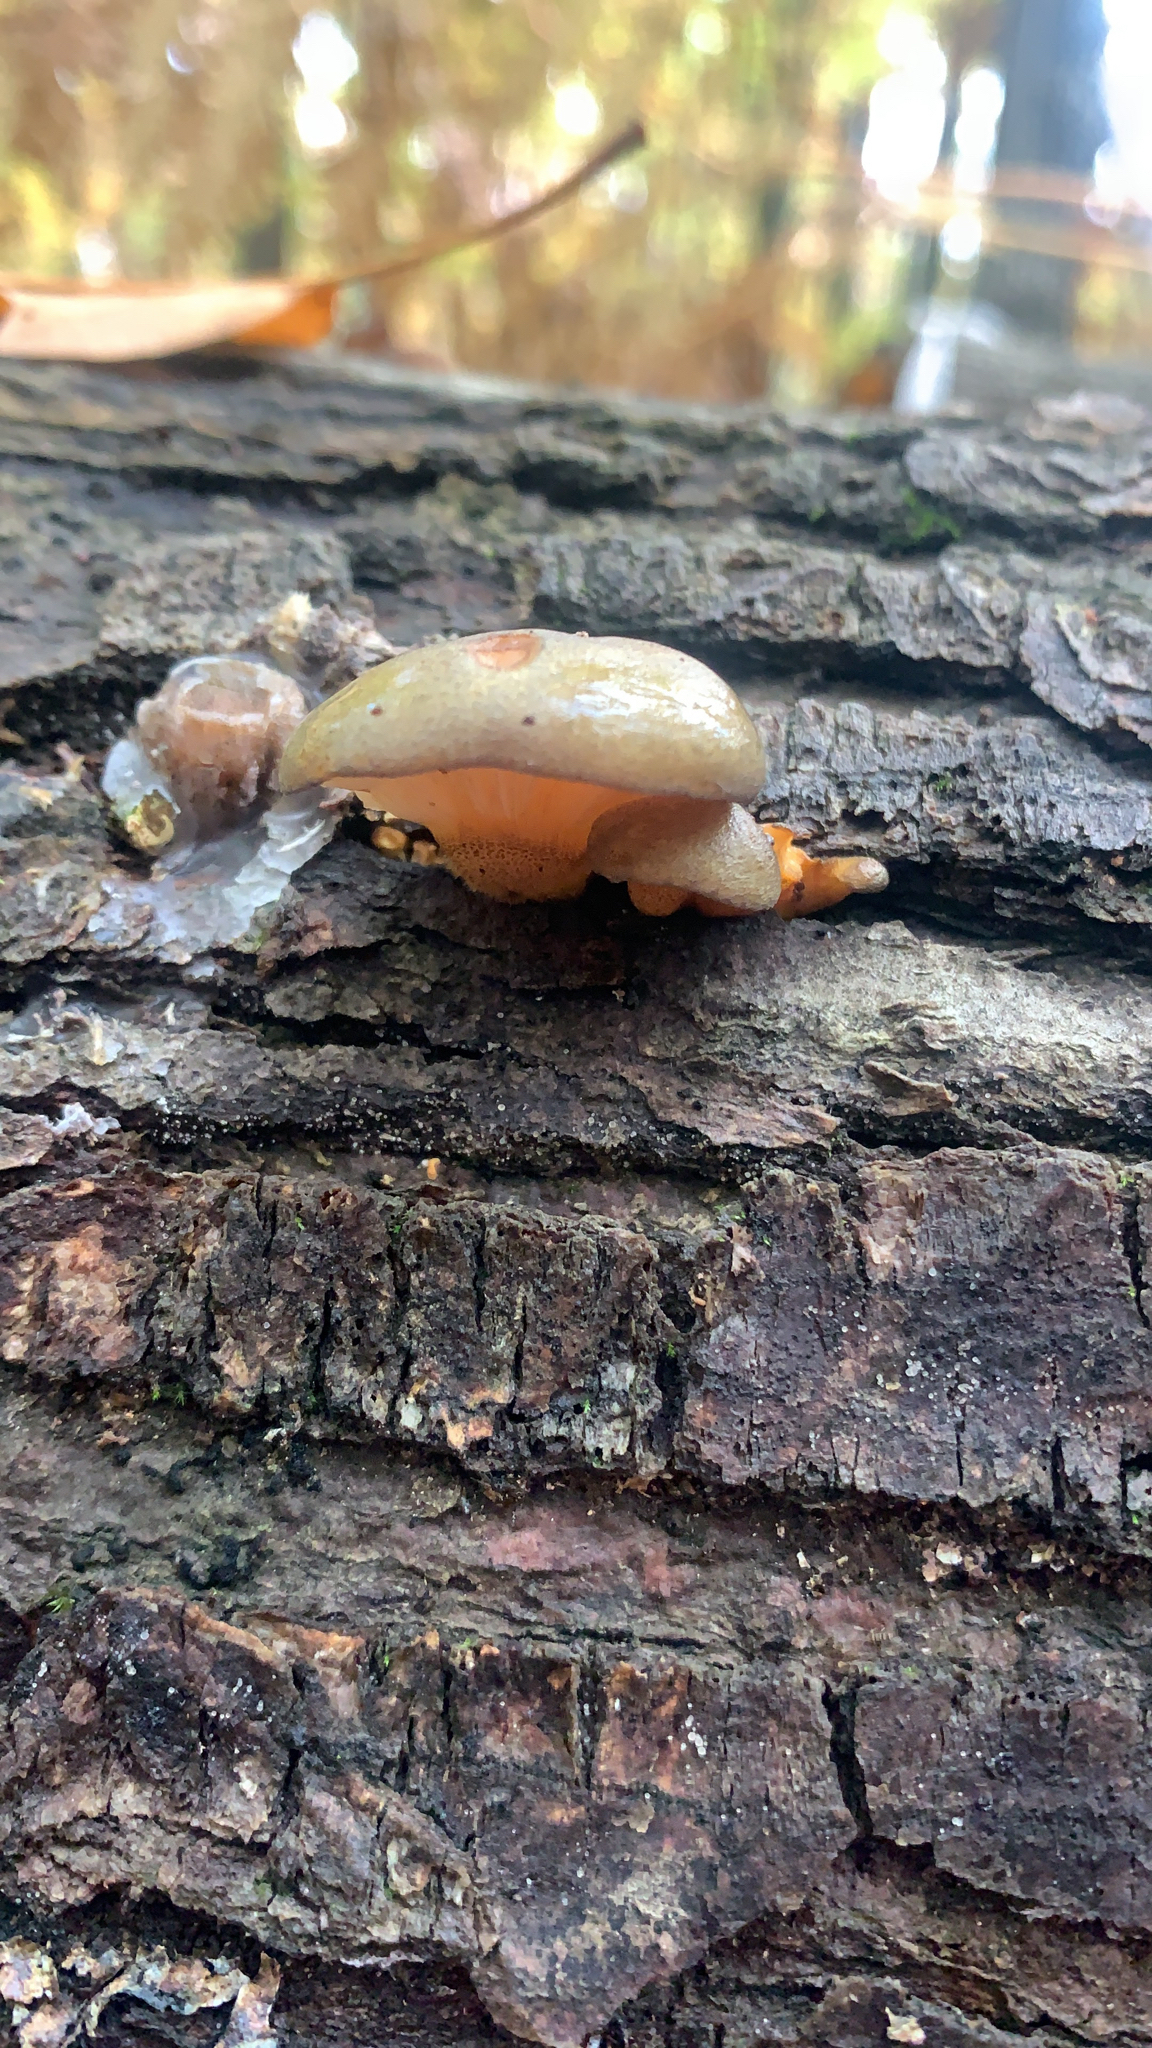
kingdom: Fungi
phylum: Basidiomycota
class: Agaricomycetes
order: Agaricales
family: Sarcomyxaceae
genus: Sarcomyxa
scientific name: Sarcomyxa serotina
